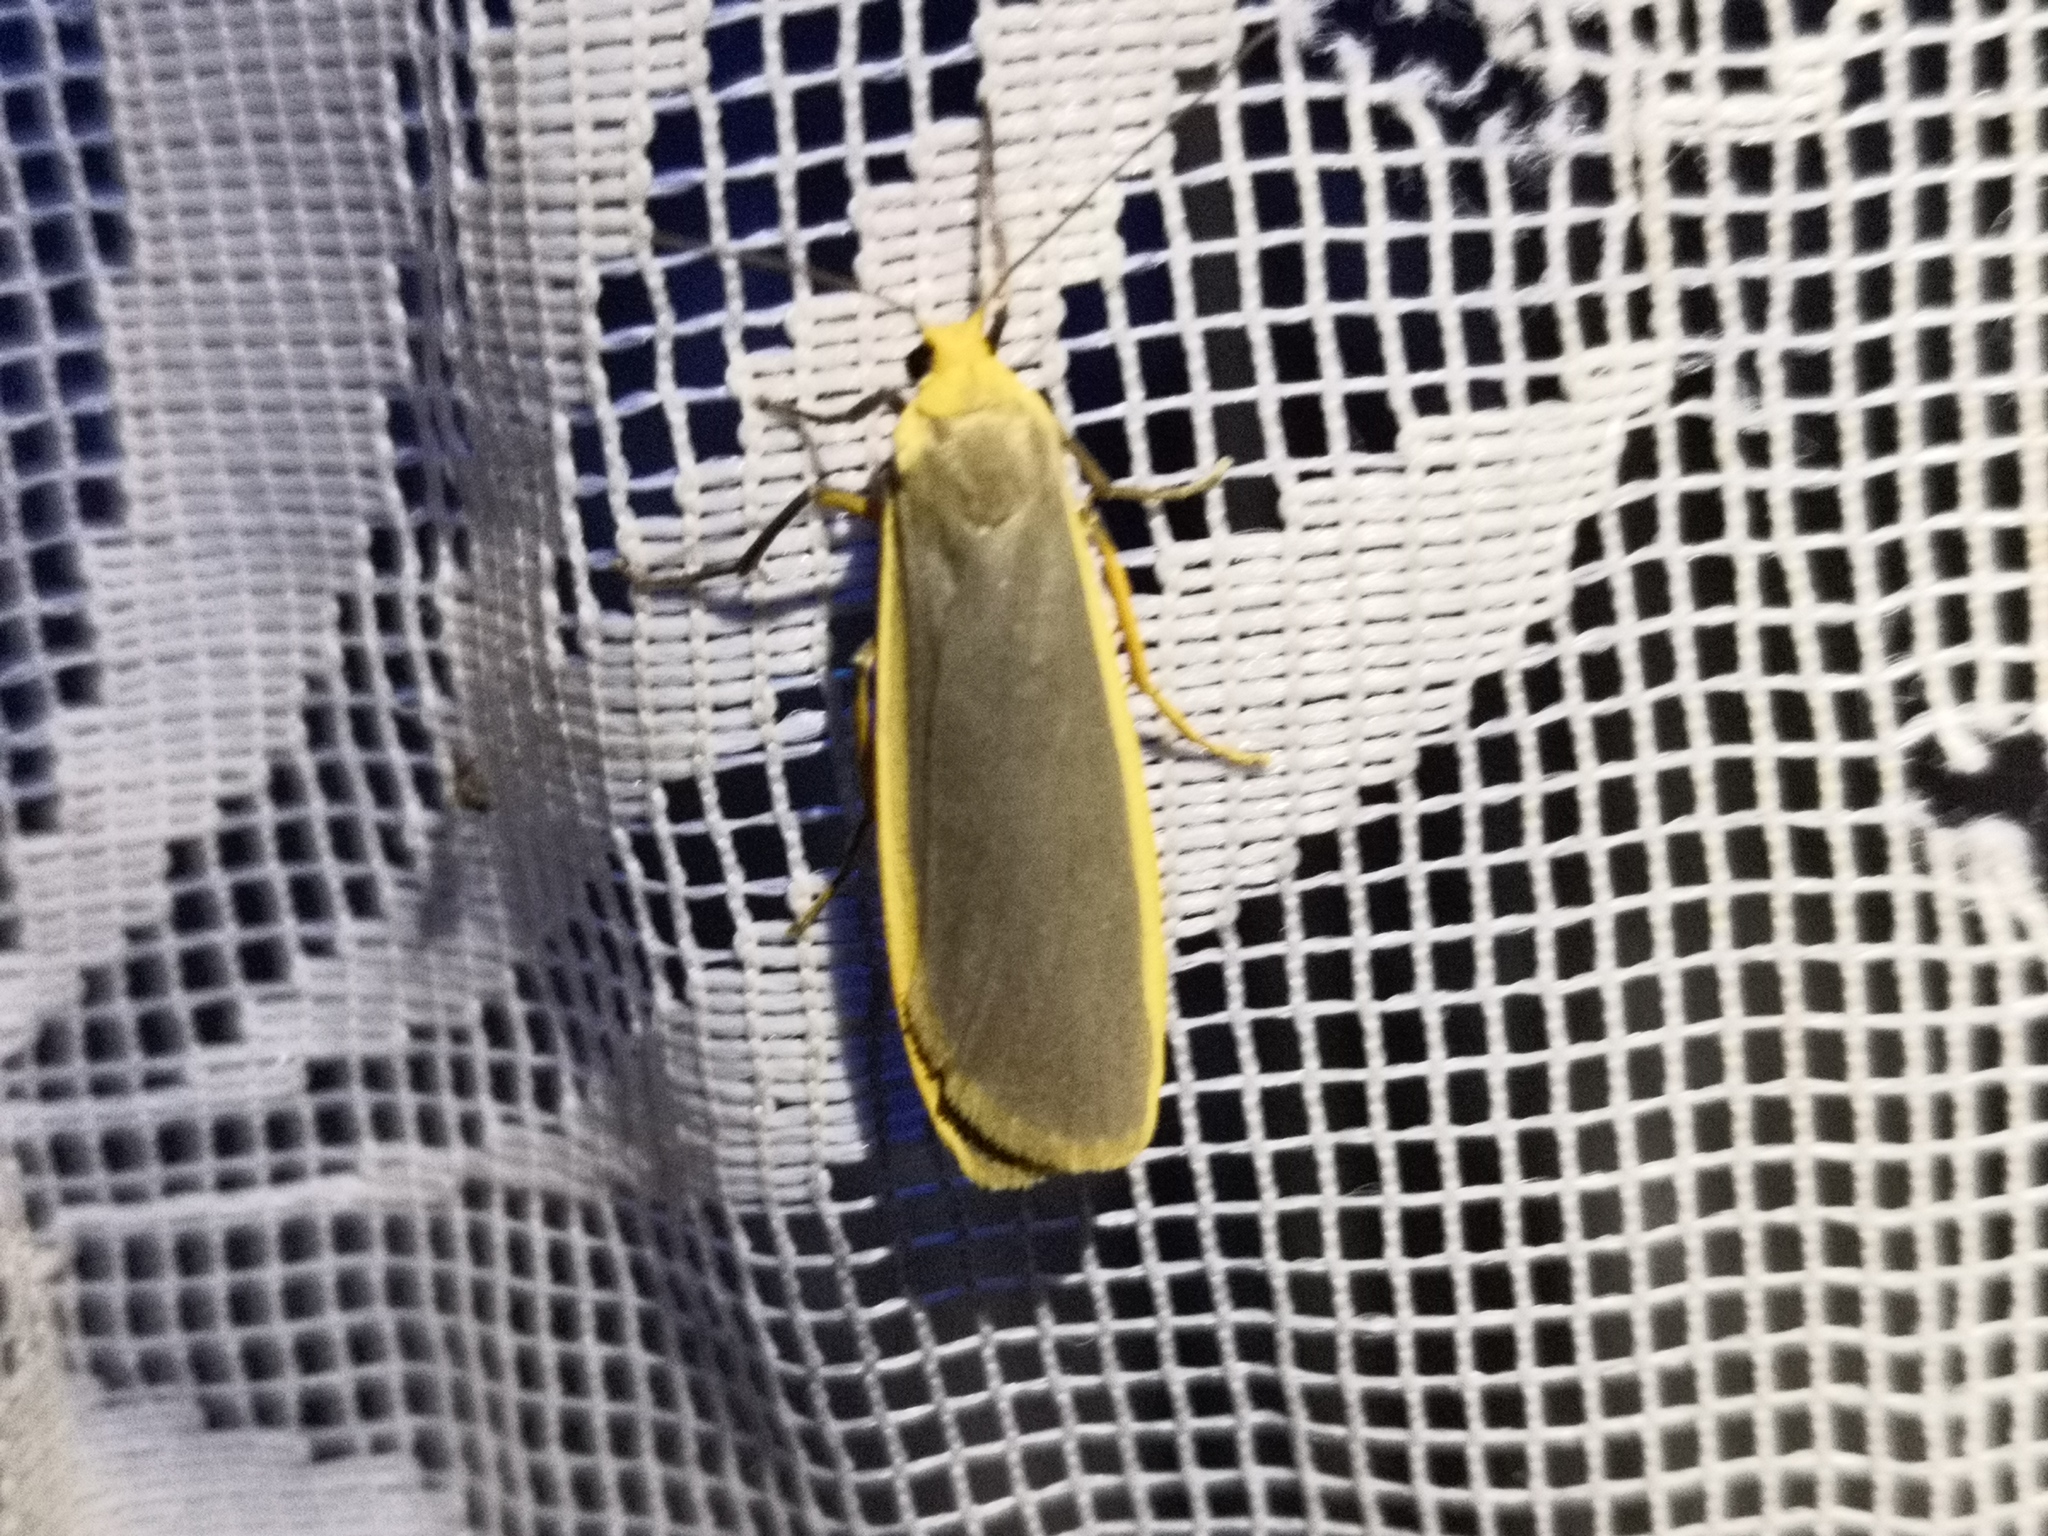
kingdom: Animalia
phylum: Arthropoda
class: Insecta
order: Lepidoptera
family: Erebidae
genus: Nyea
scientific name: Nyea lurideola
